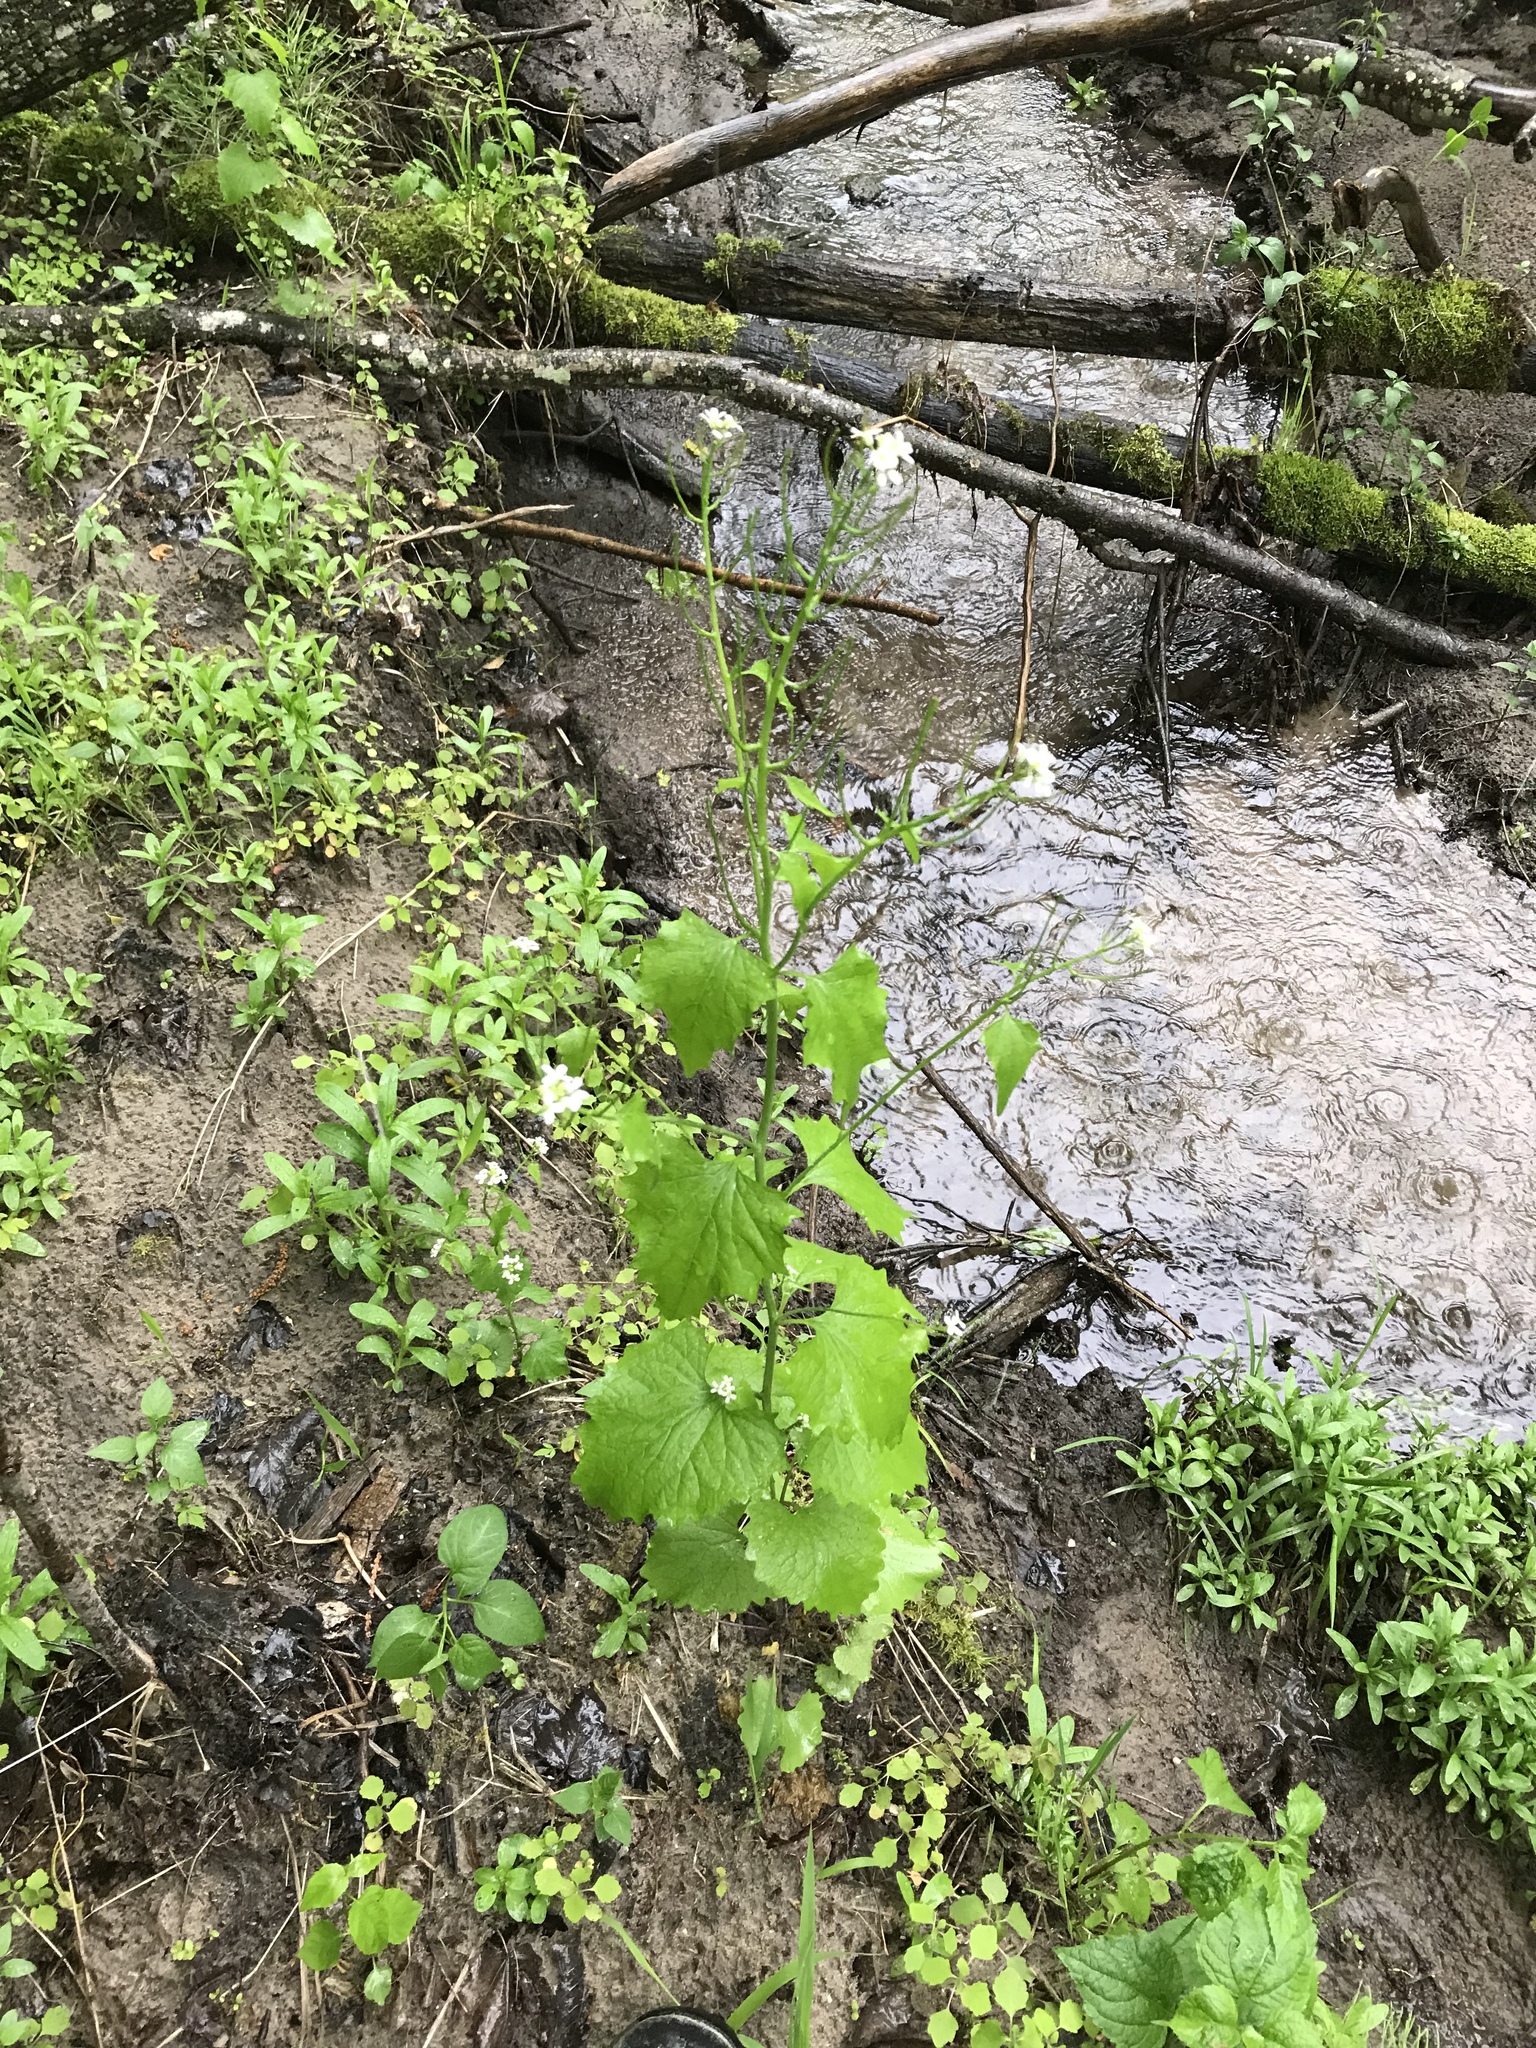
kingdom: Plantae
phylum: Tracheophyta
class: Magnoliopsida
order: Brassicales
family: Brassicaceae
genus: Alliaria
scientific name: Alliaria petiolata
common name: Garlic mustard
